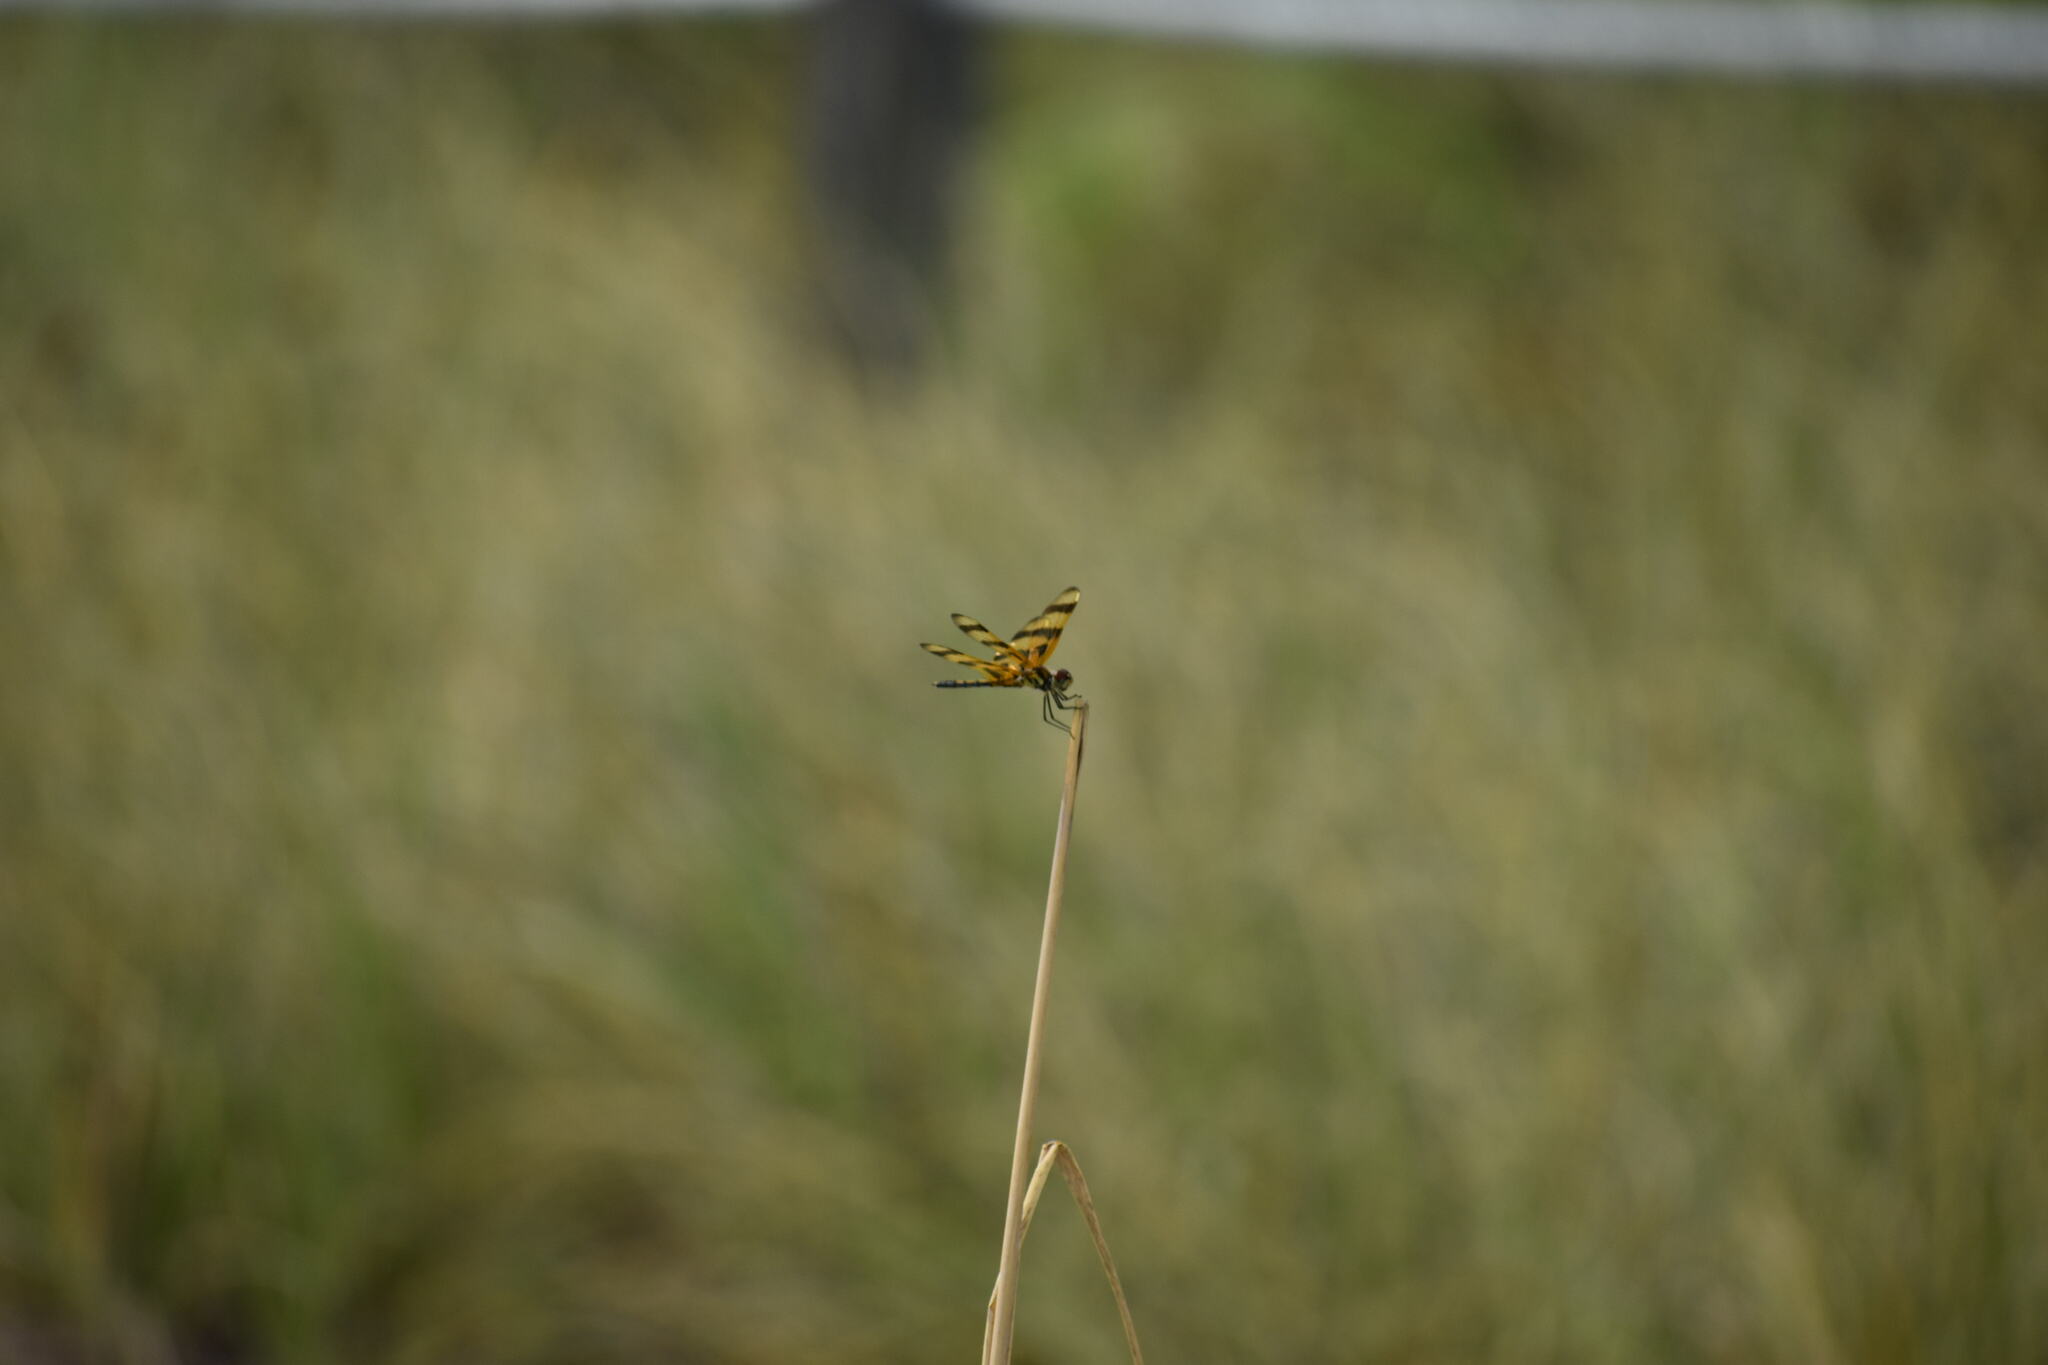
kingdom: Animalia
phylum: Arthropoda
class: Insecta
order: Odonata
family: Libellulidae
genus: Celithemis
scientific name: Celithemis eponina
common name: Halloween pennant
